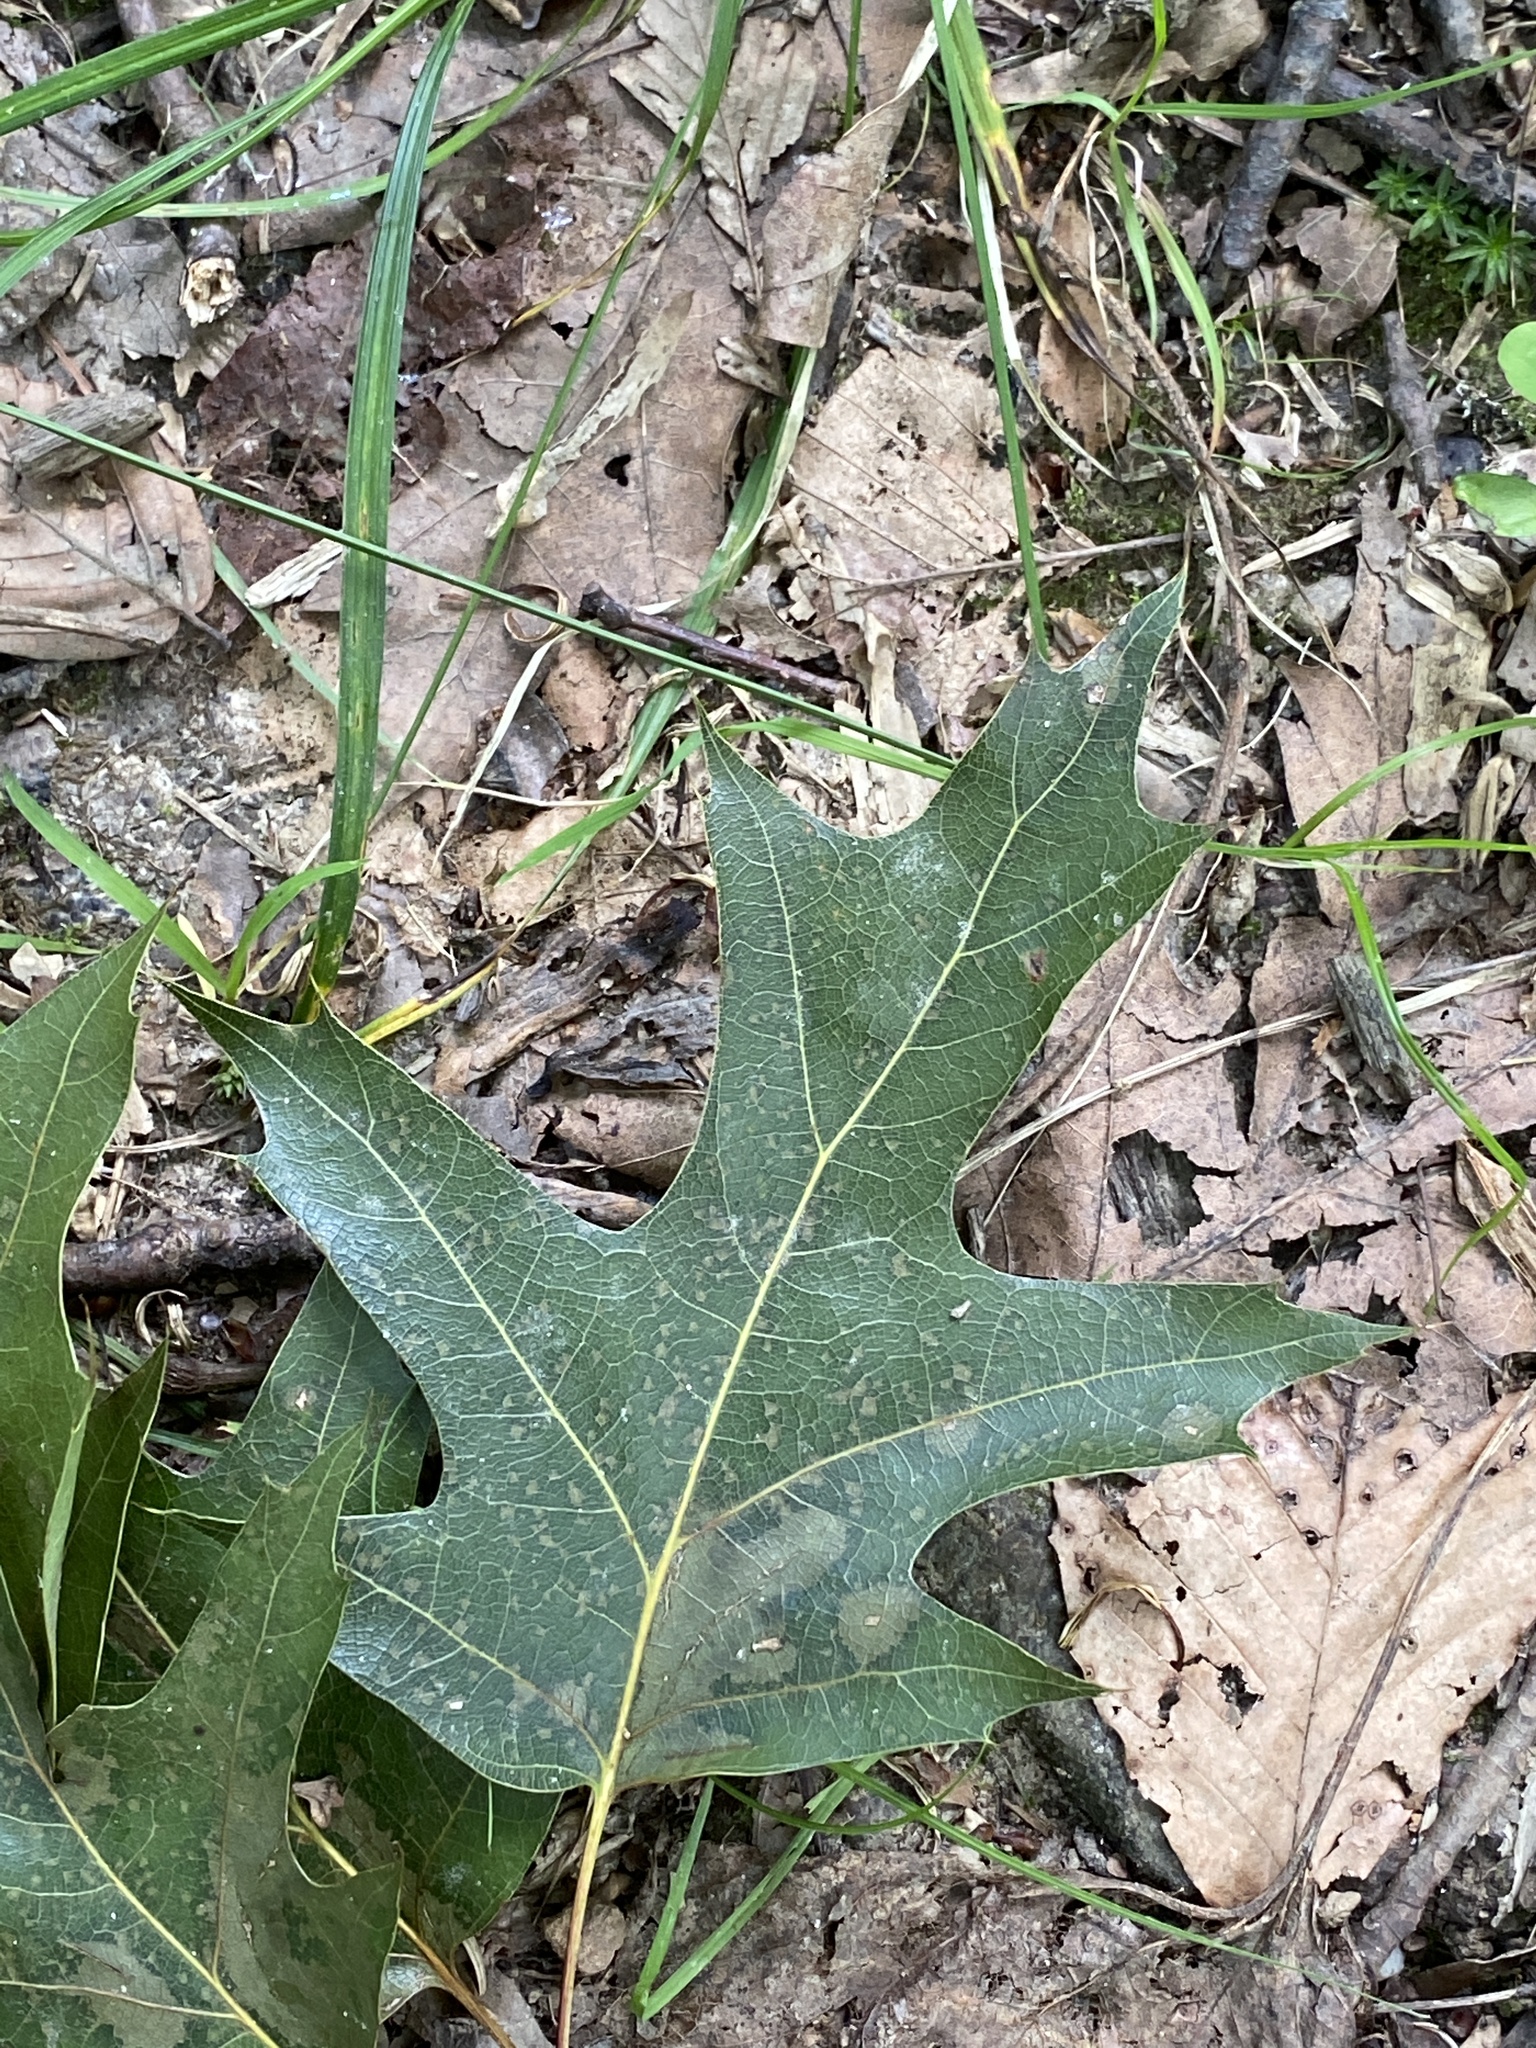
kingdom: Plantae
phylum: Tracheophyta
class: Magnoliopsida
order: Fagales
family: Fagaceae
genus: Quercus
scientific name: Quercus rubra
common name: Red oak
